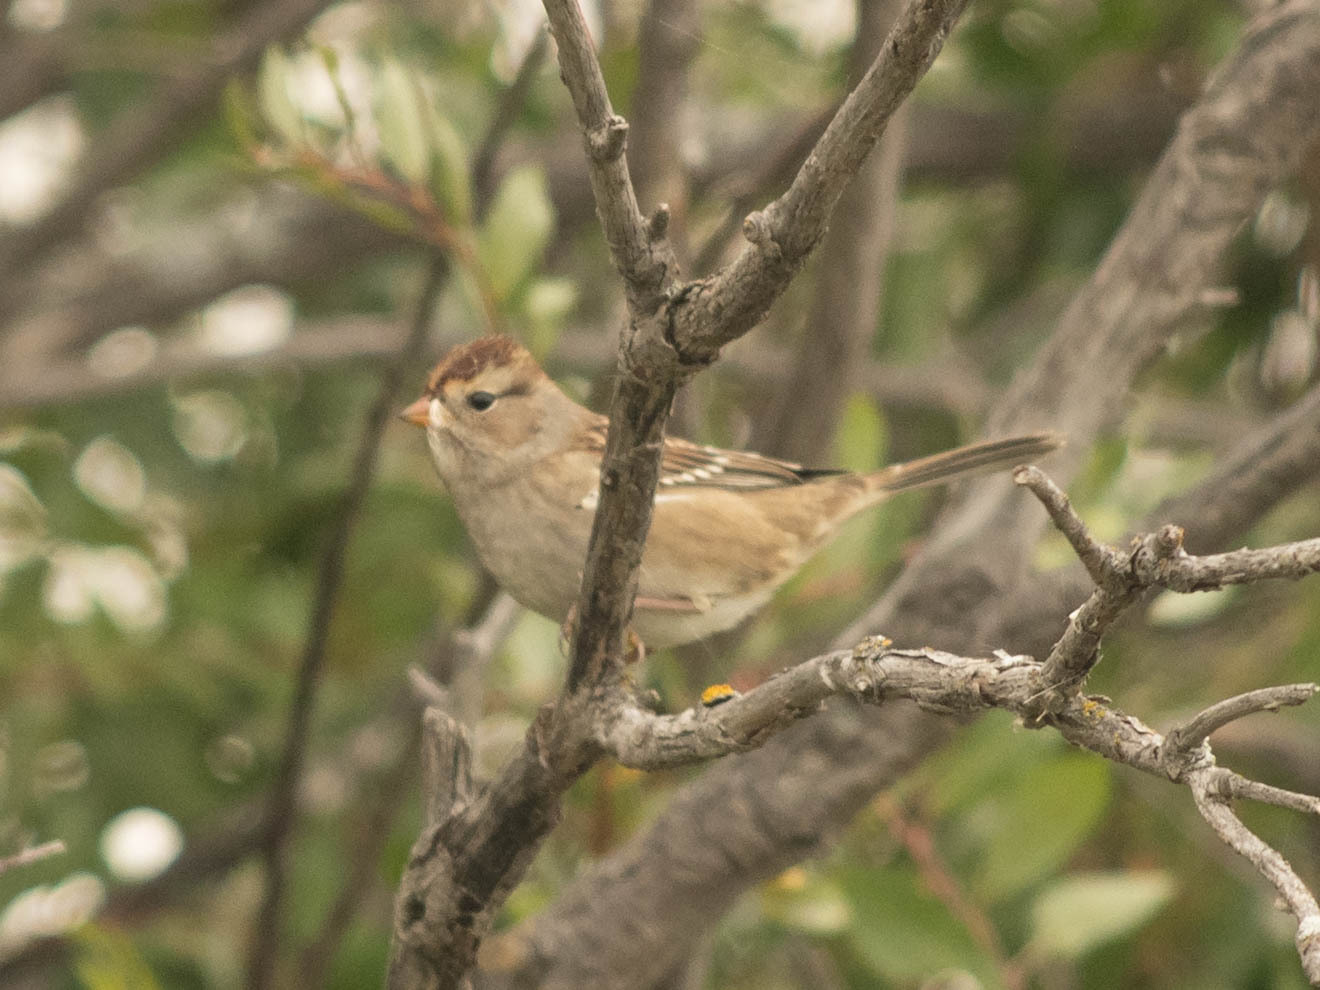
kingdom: Animalia
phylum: Chordata
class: Aves
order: Passeriformes
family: Passerellidae
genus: Zonotrichia
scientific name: Zonotrichia leucophrys
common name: White-crowned sparrow
